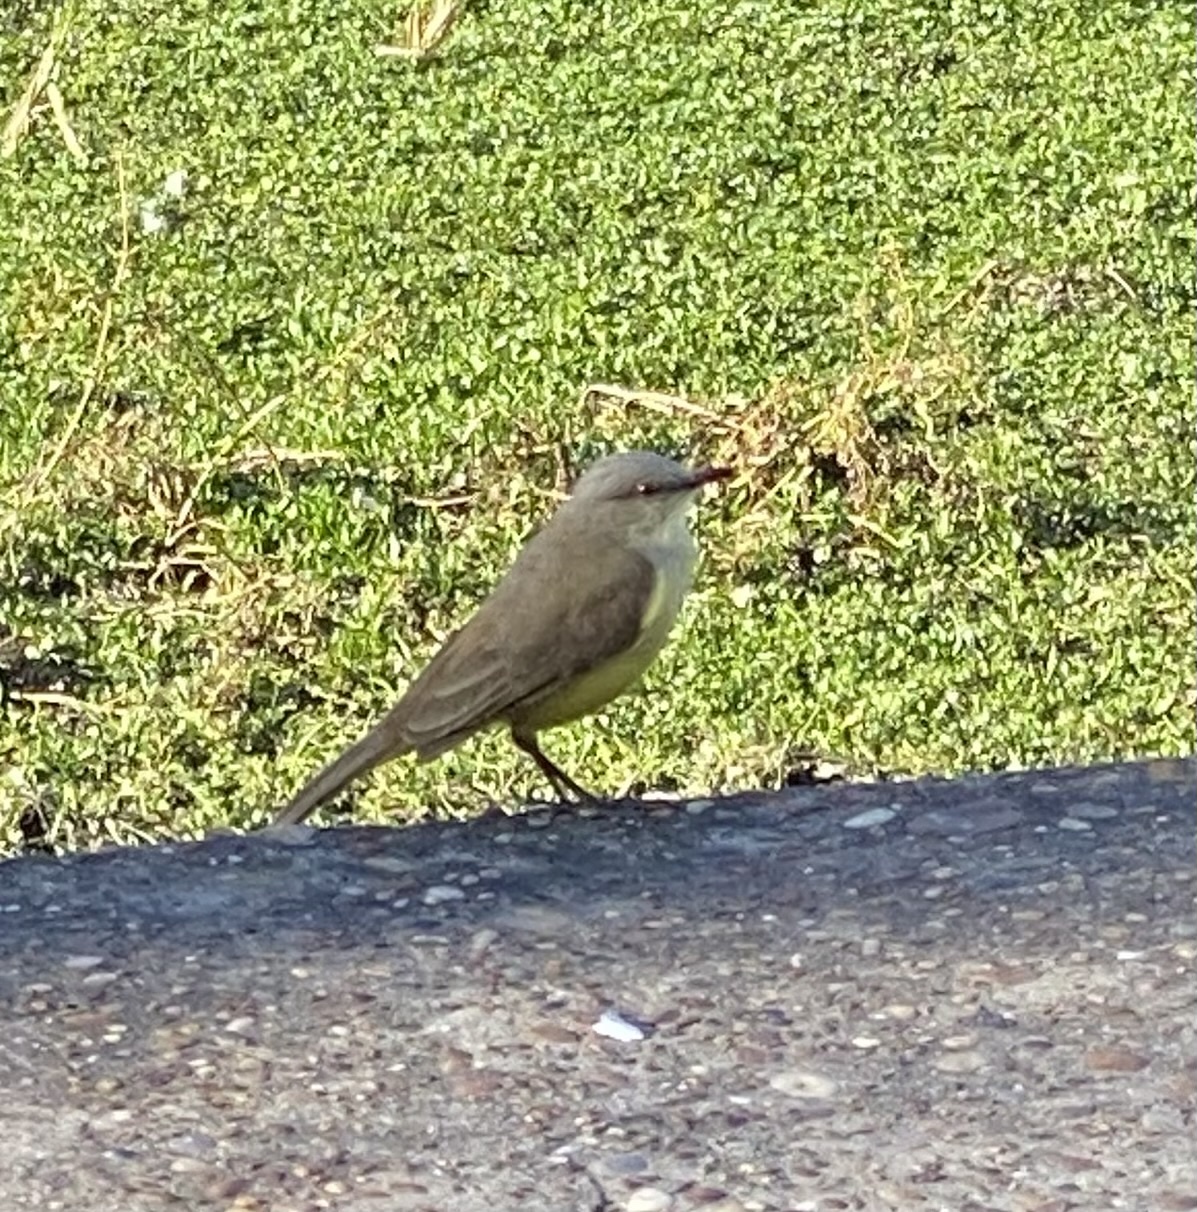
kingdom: Animalia
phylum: Chordata
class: Aves
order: Passeriformes
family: Tyrannidae
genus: Machetornis
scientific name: Machetornis rixosa
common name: Cattle tyrant
